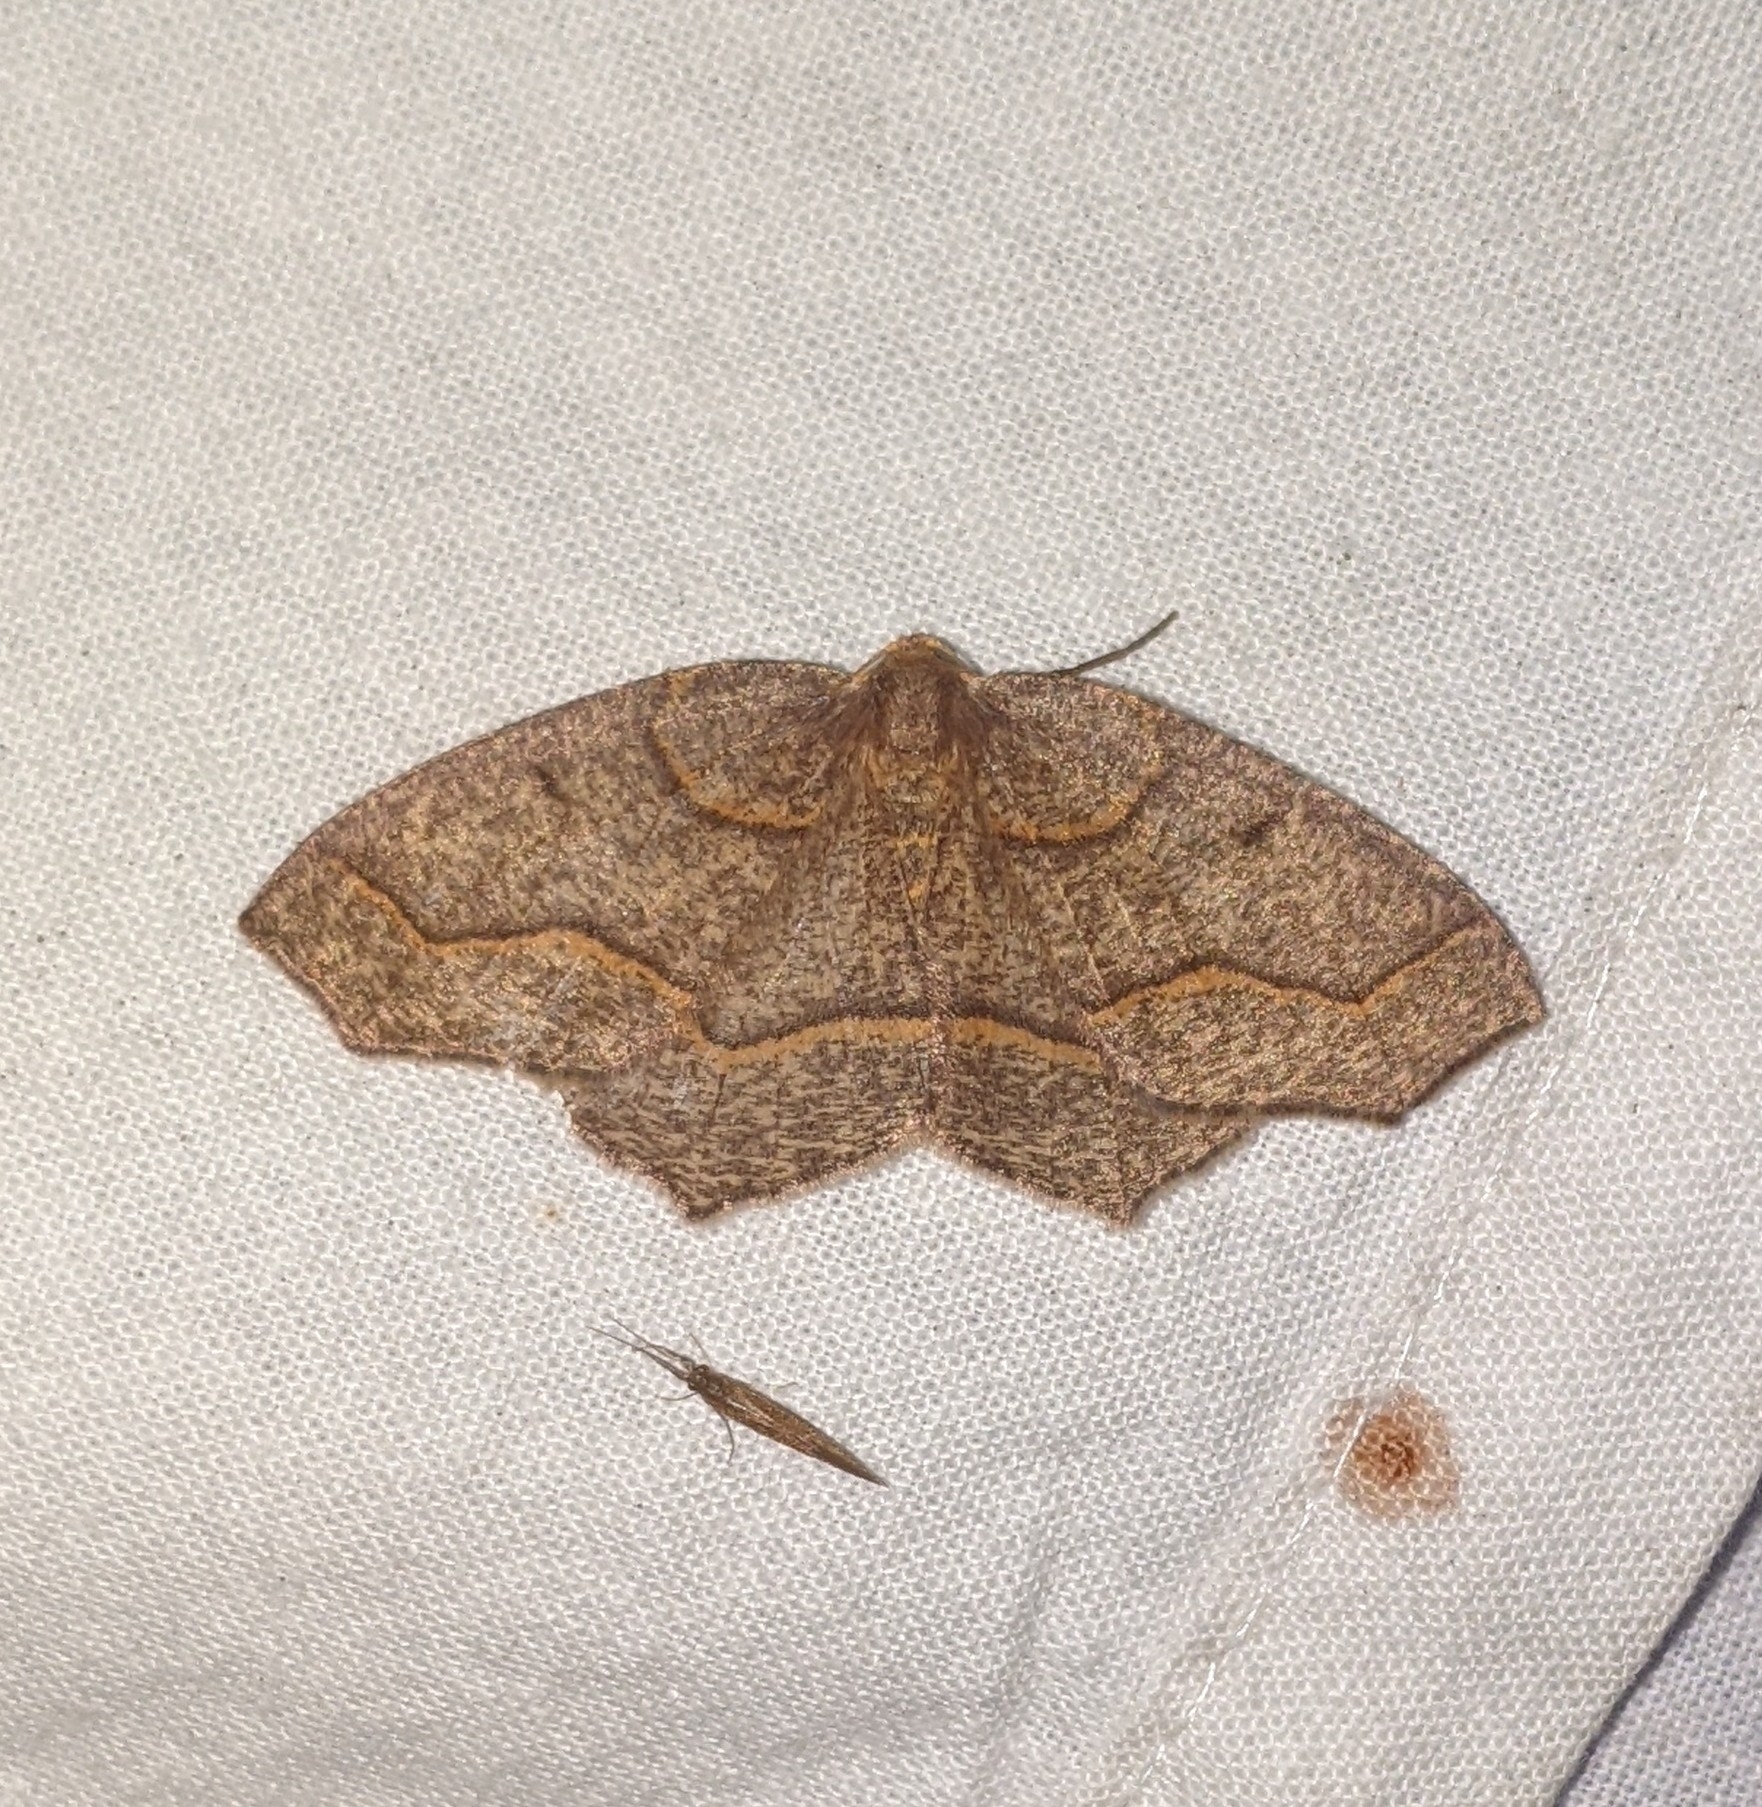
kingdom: Animalia
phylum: Arthropoda
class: Insecta
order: Lepidoptera
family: Geometridae
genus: Lambdina
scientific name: Lambdina fiscellaria
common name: Hemlock looper
